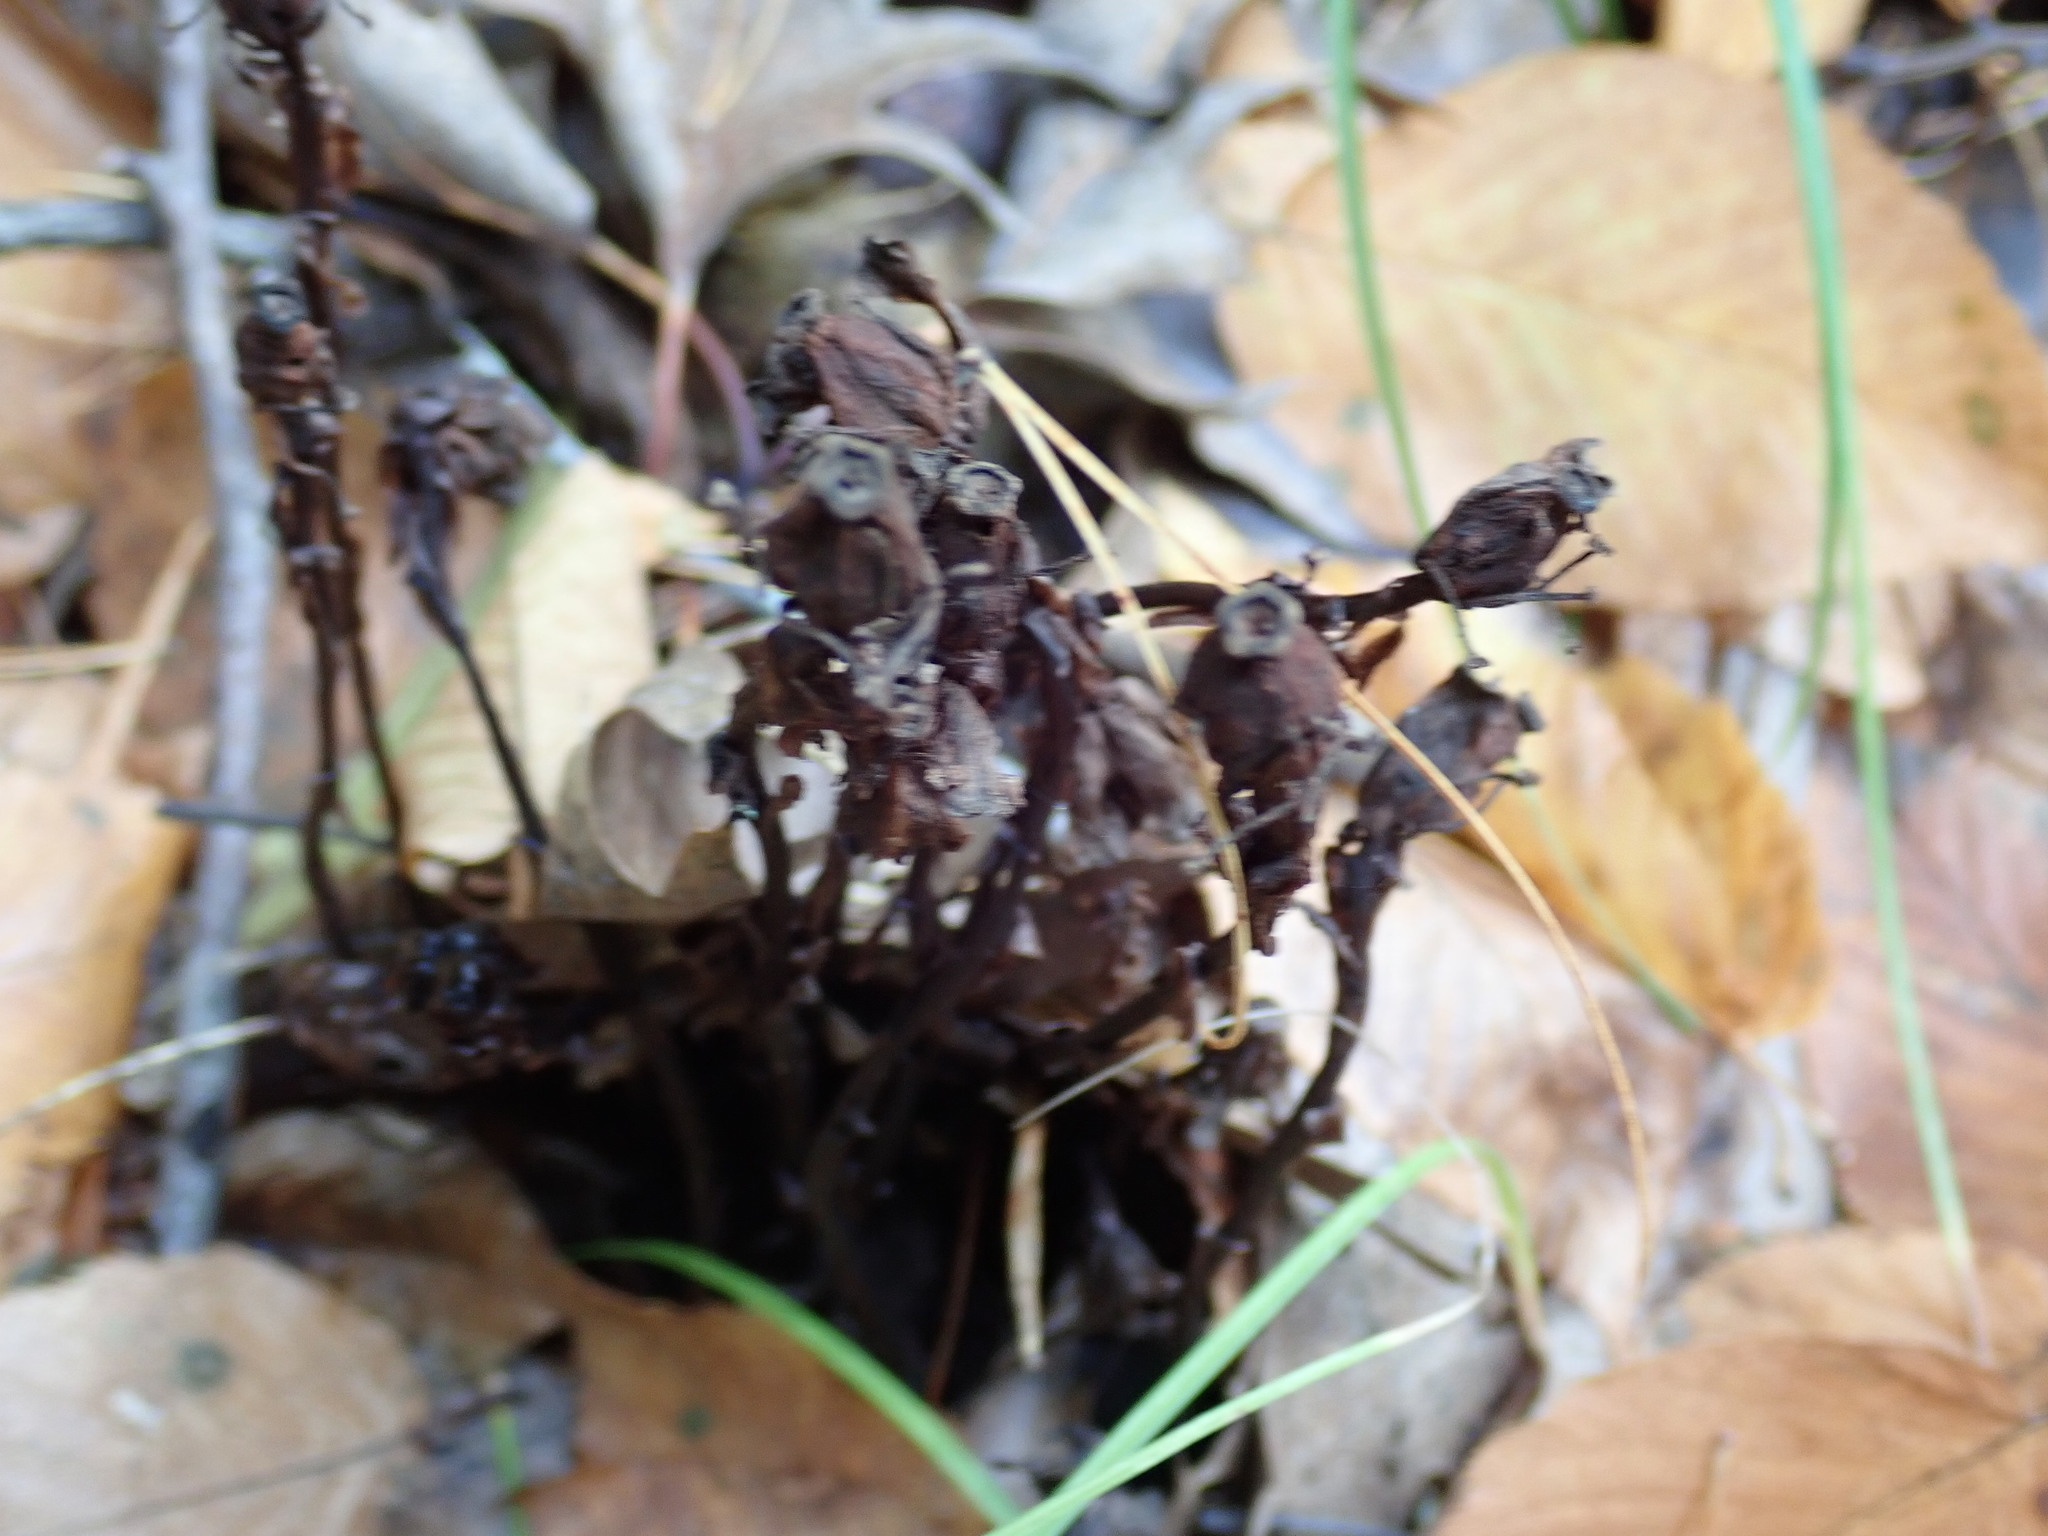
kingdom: Plantae
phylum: Tracheophyta
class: Magnoliopsida
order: Ericales
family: Ericaceae
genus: Monotropa
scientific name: Monotropa uniflora
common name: Convulsion root
